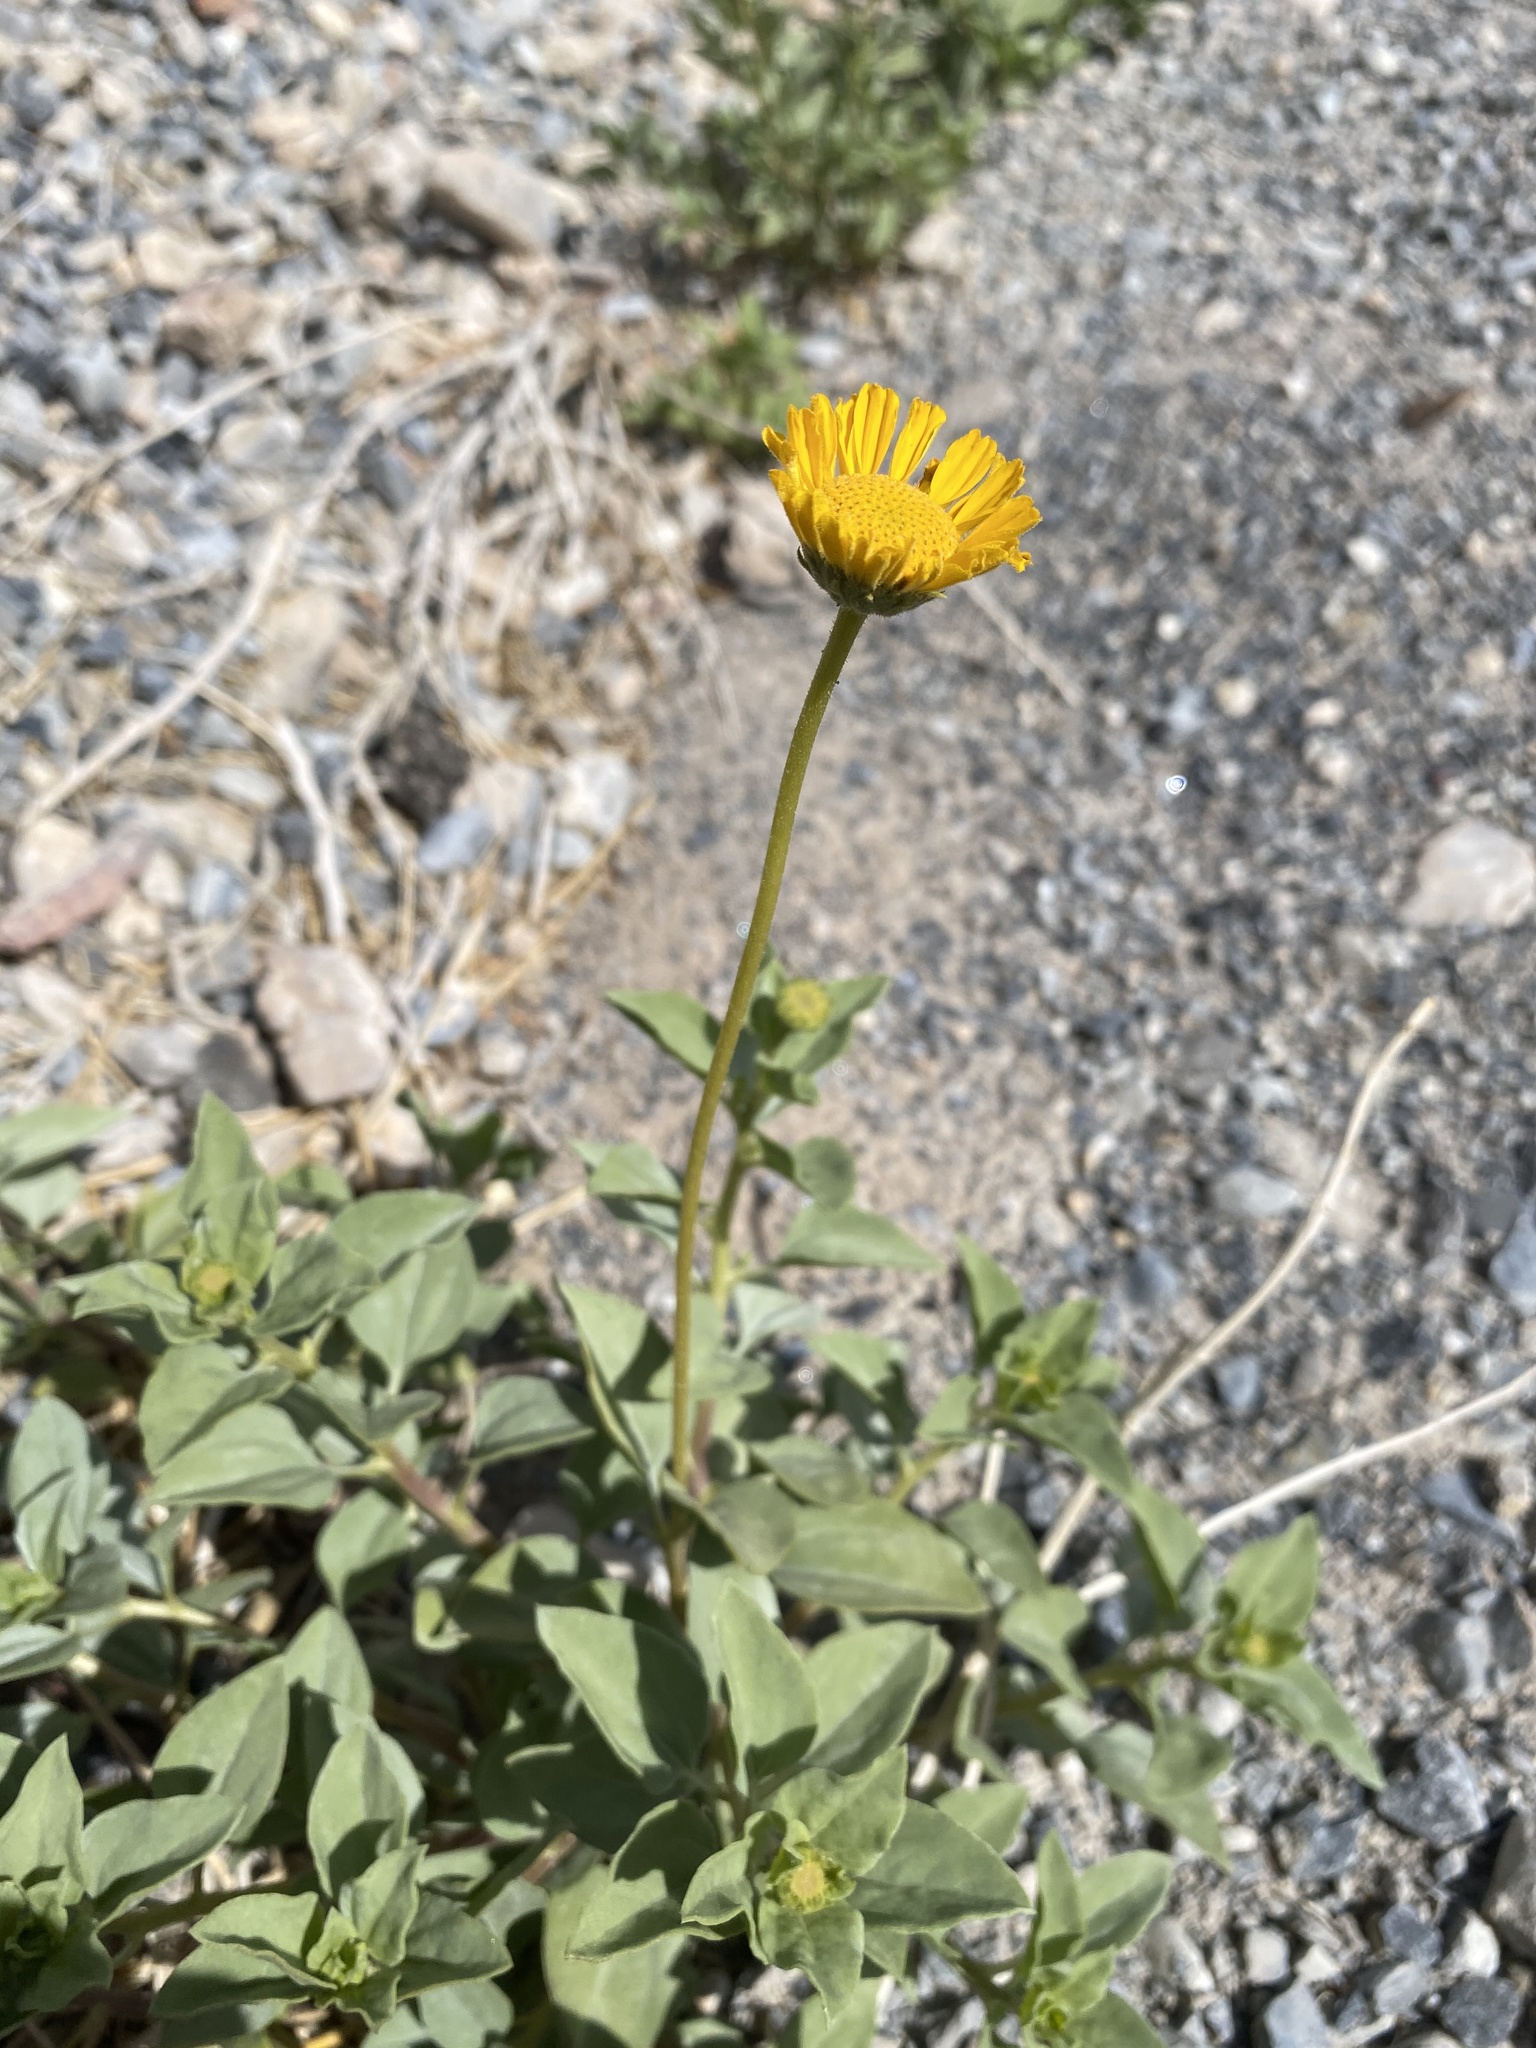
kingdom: Plantae
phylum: Tracheophyta
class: Magnoliopsida
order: Asterales
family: Asteraceae
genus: Encelia
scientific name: Encelia actoni
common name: Acton encelia
